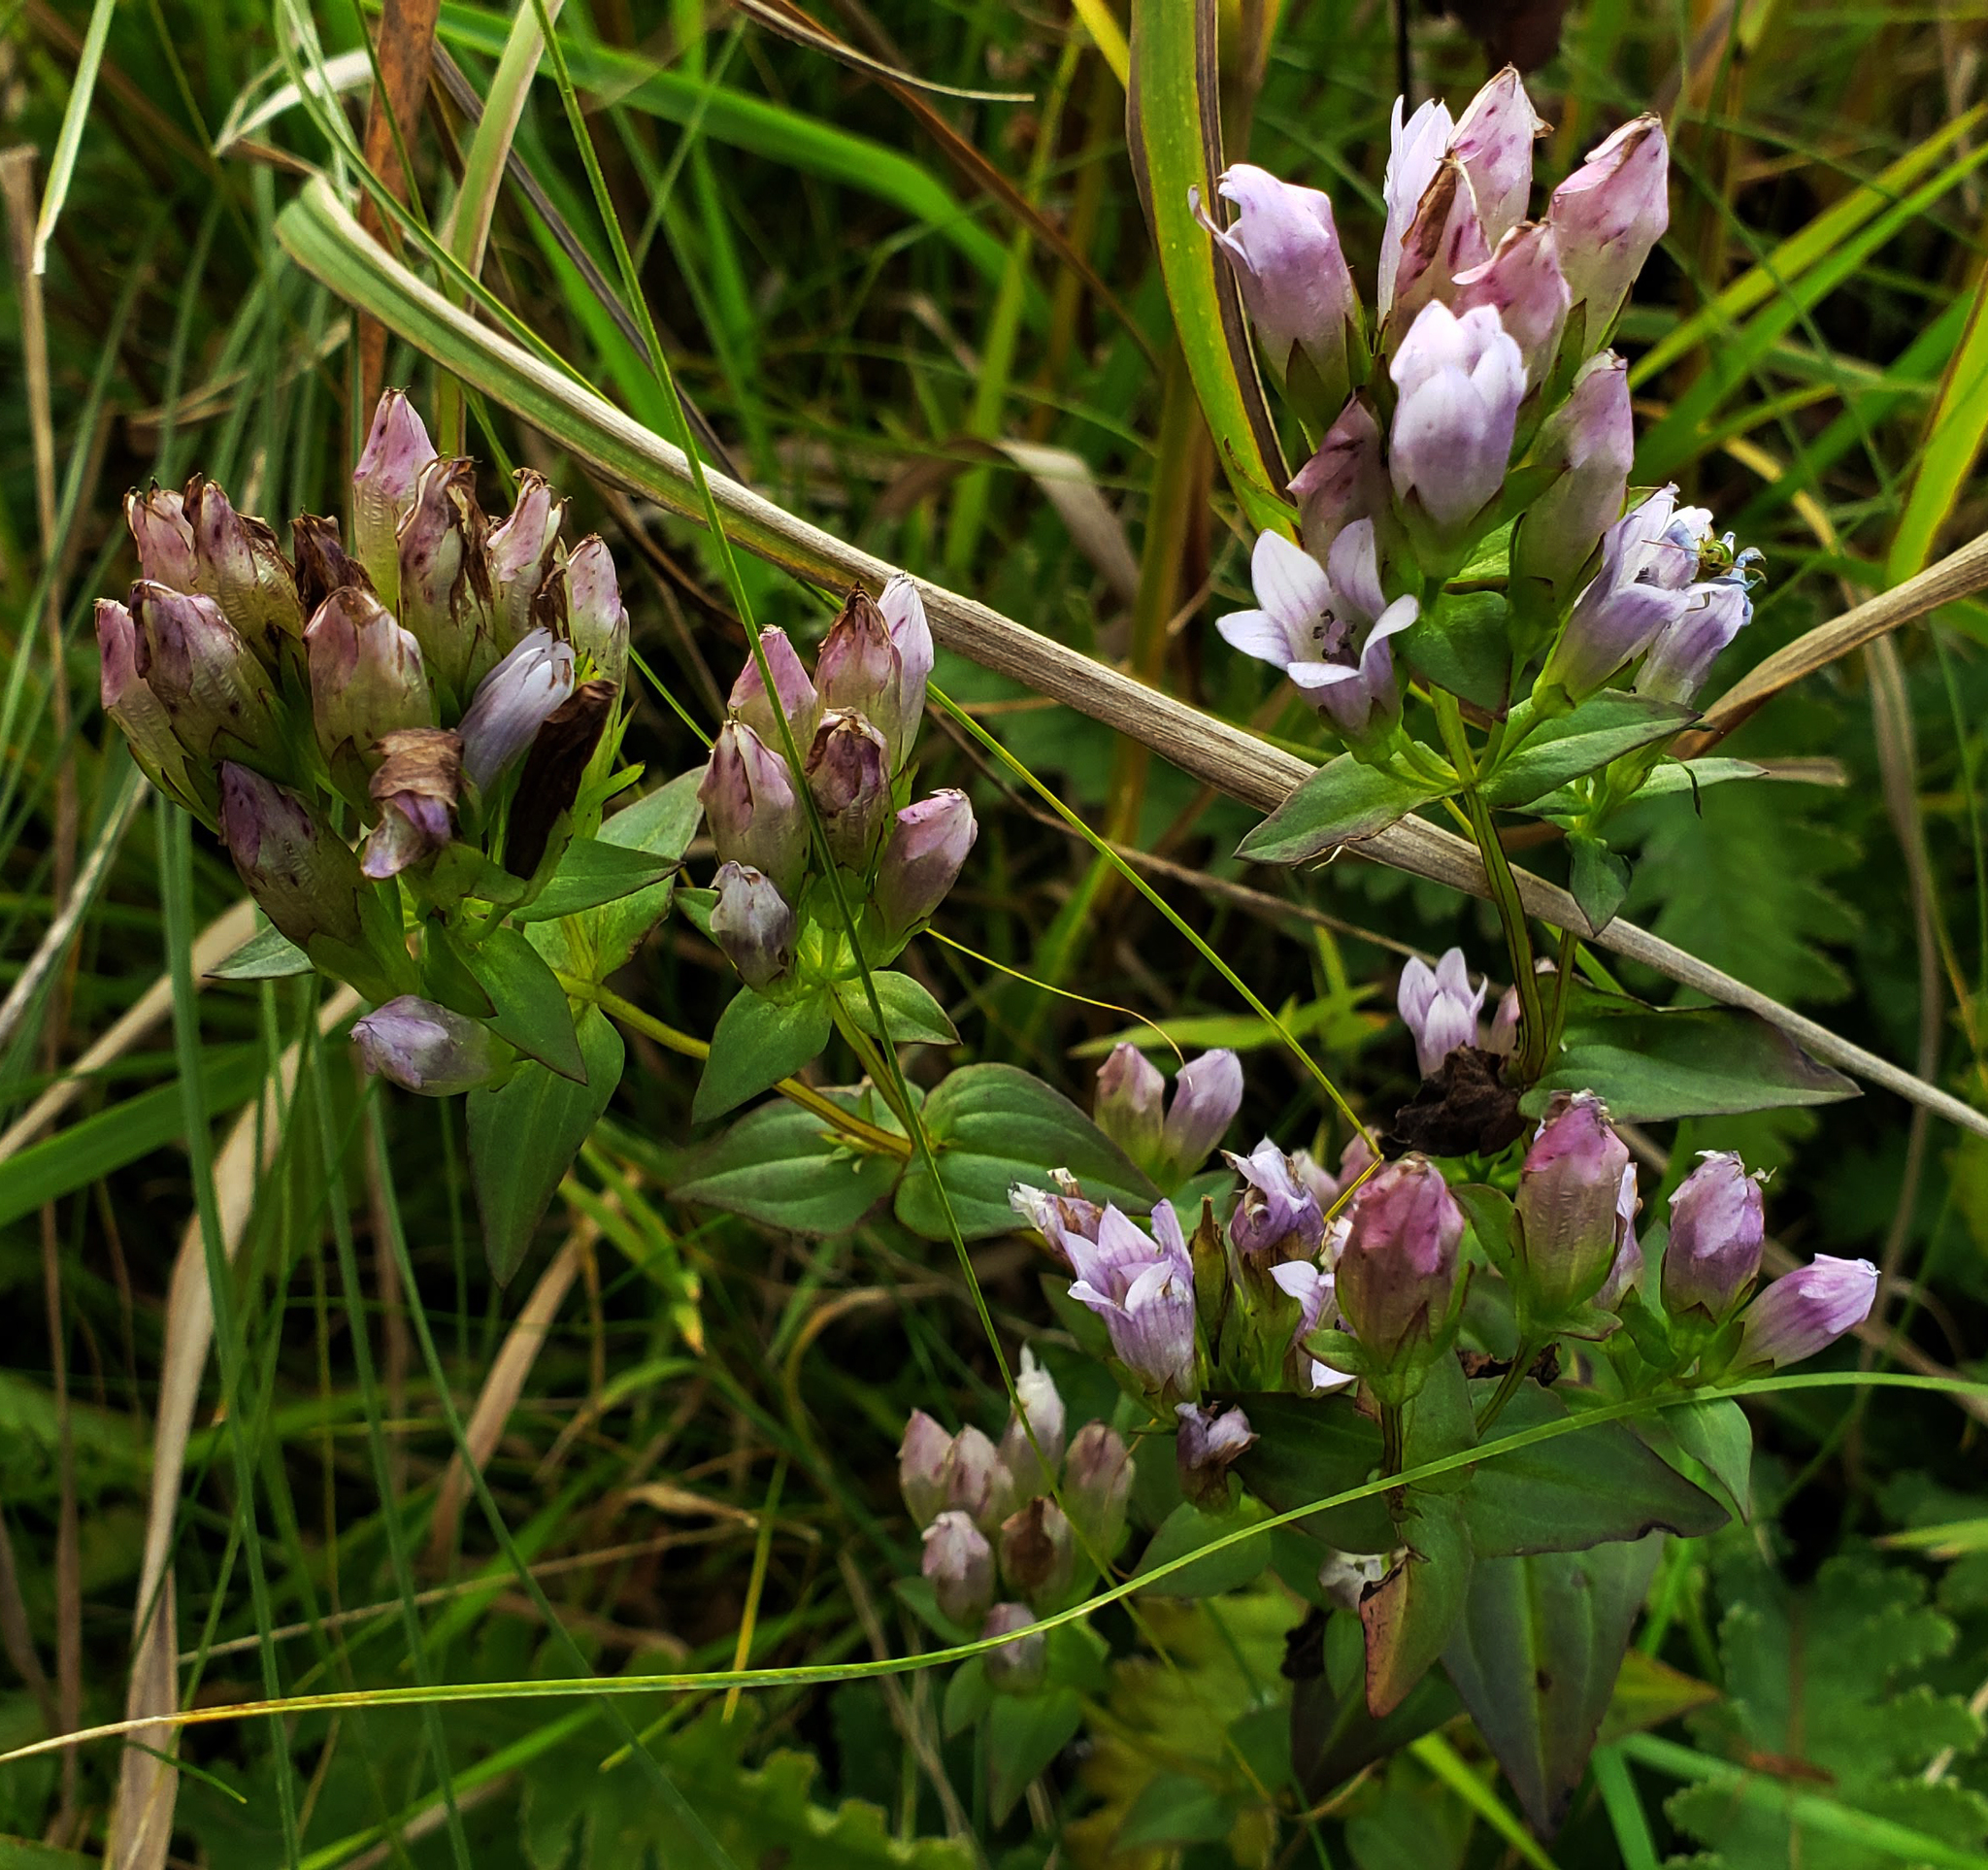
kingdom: Plantae
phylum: Tracheophyta
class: Magnoliopsida
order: Gentianales
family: Gentianaceae
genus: Gentianella
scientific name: Gentianella quinquefolia
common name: Agueweed
